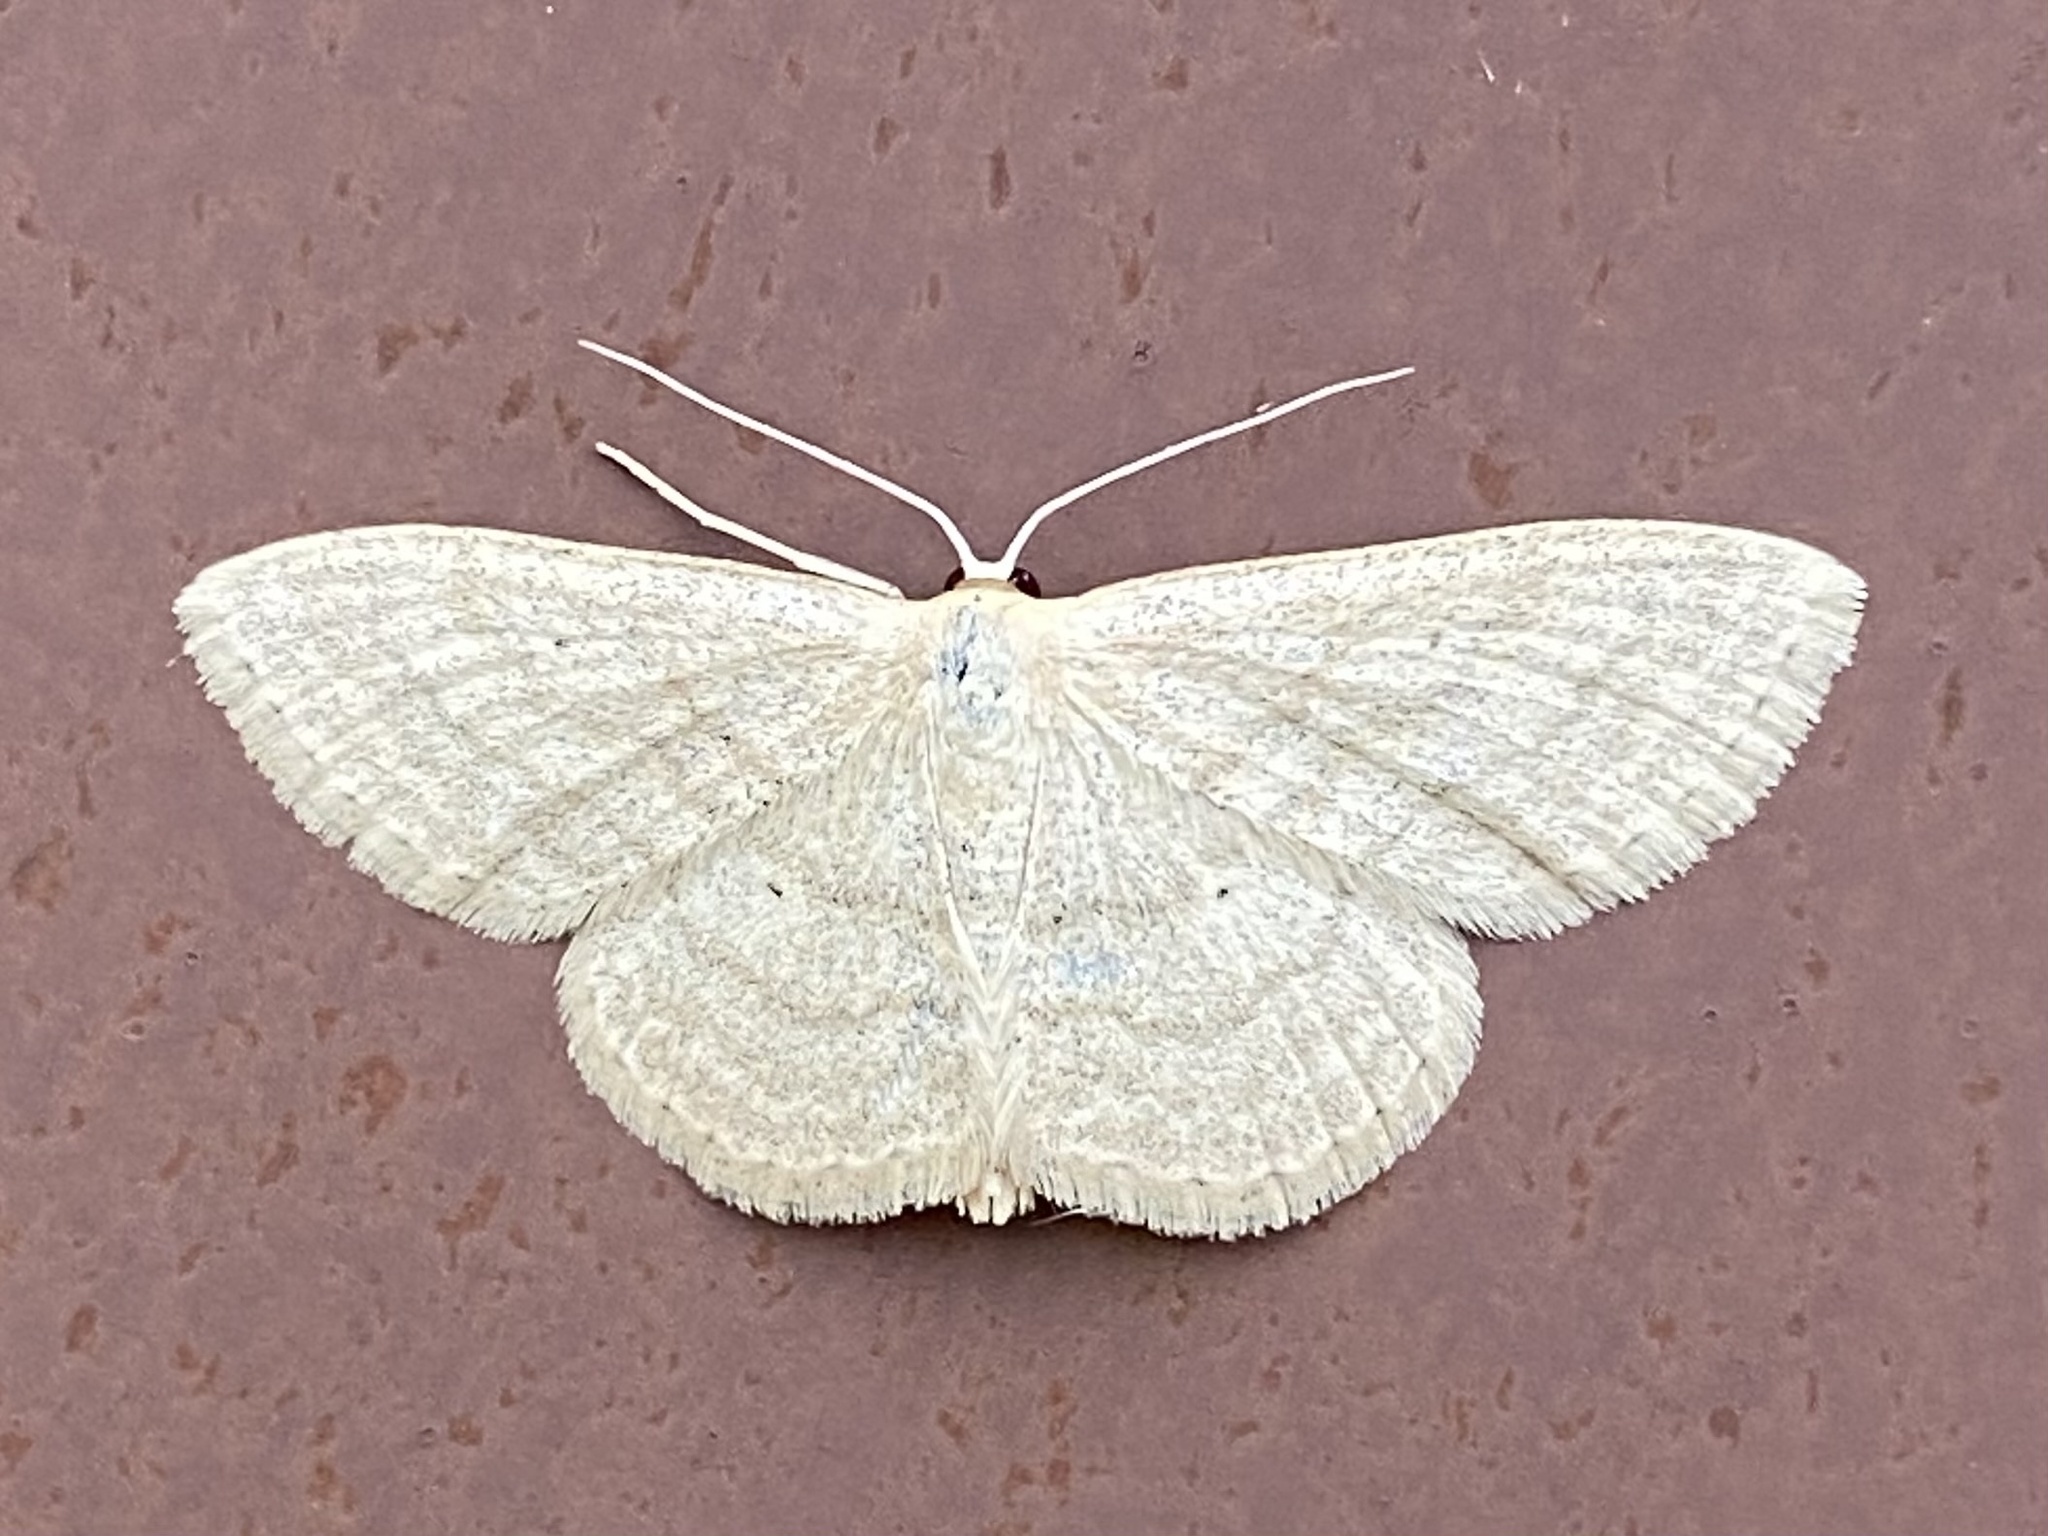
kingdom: Animalia
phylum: Arthropoda
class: Insecta
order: Lepidoptera
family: Geometridae
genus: Scopula
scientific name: Scopula inductata
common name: Soft-lined wave
